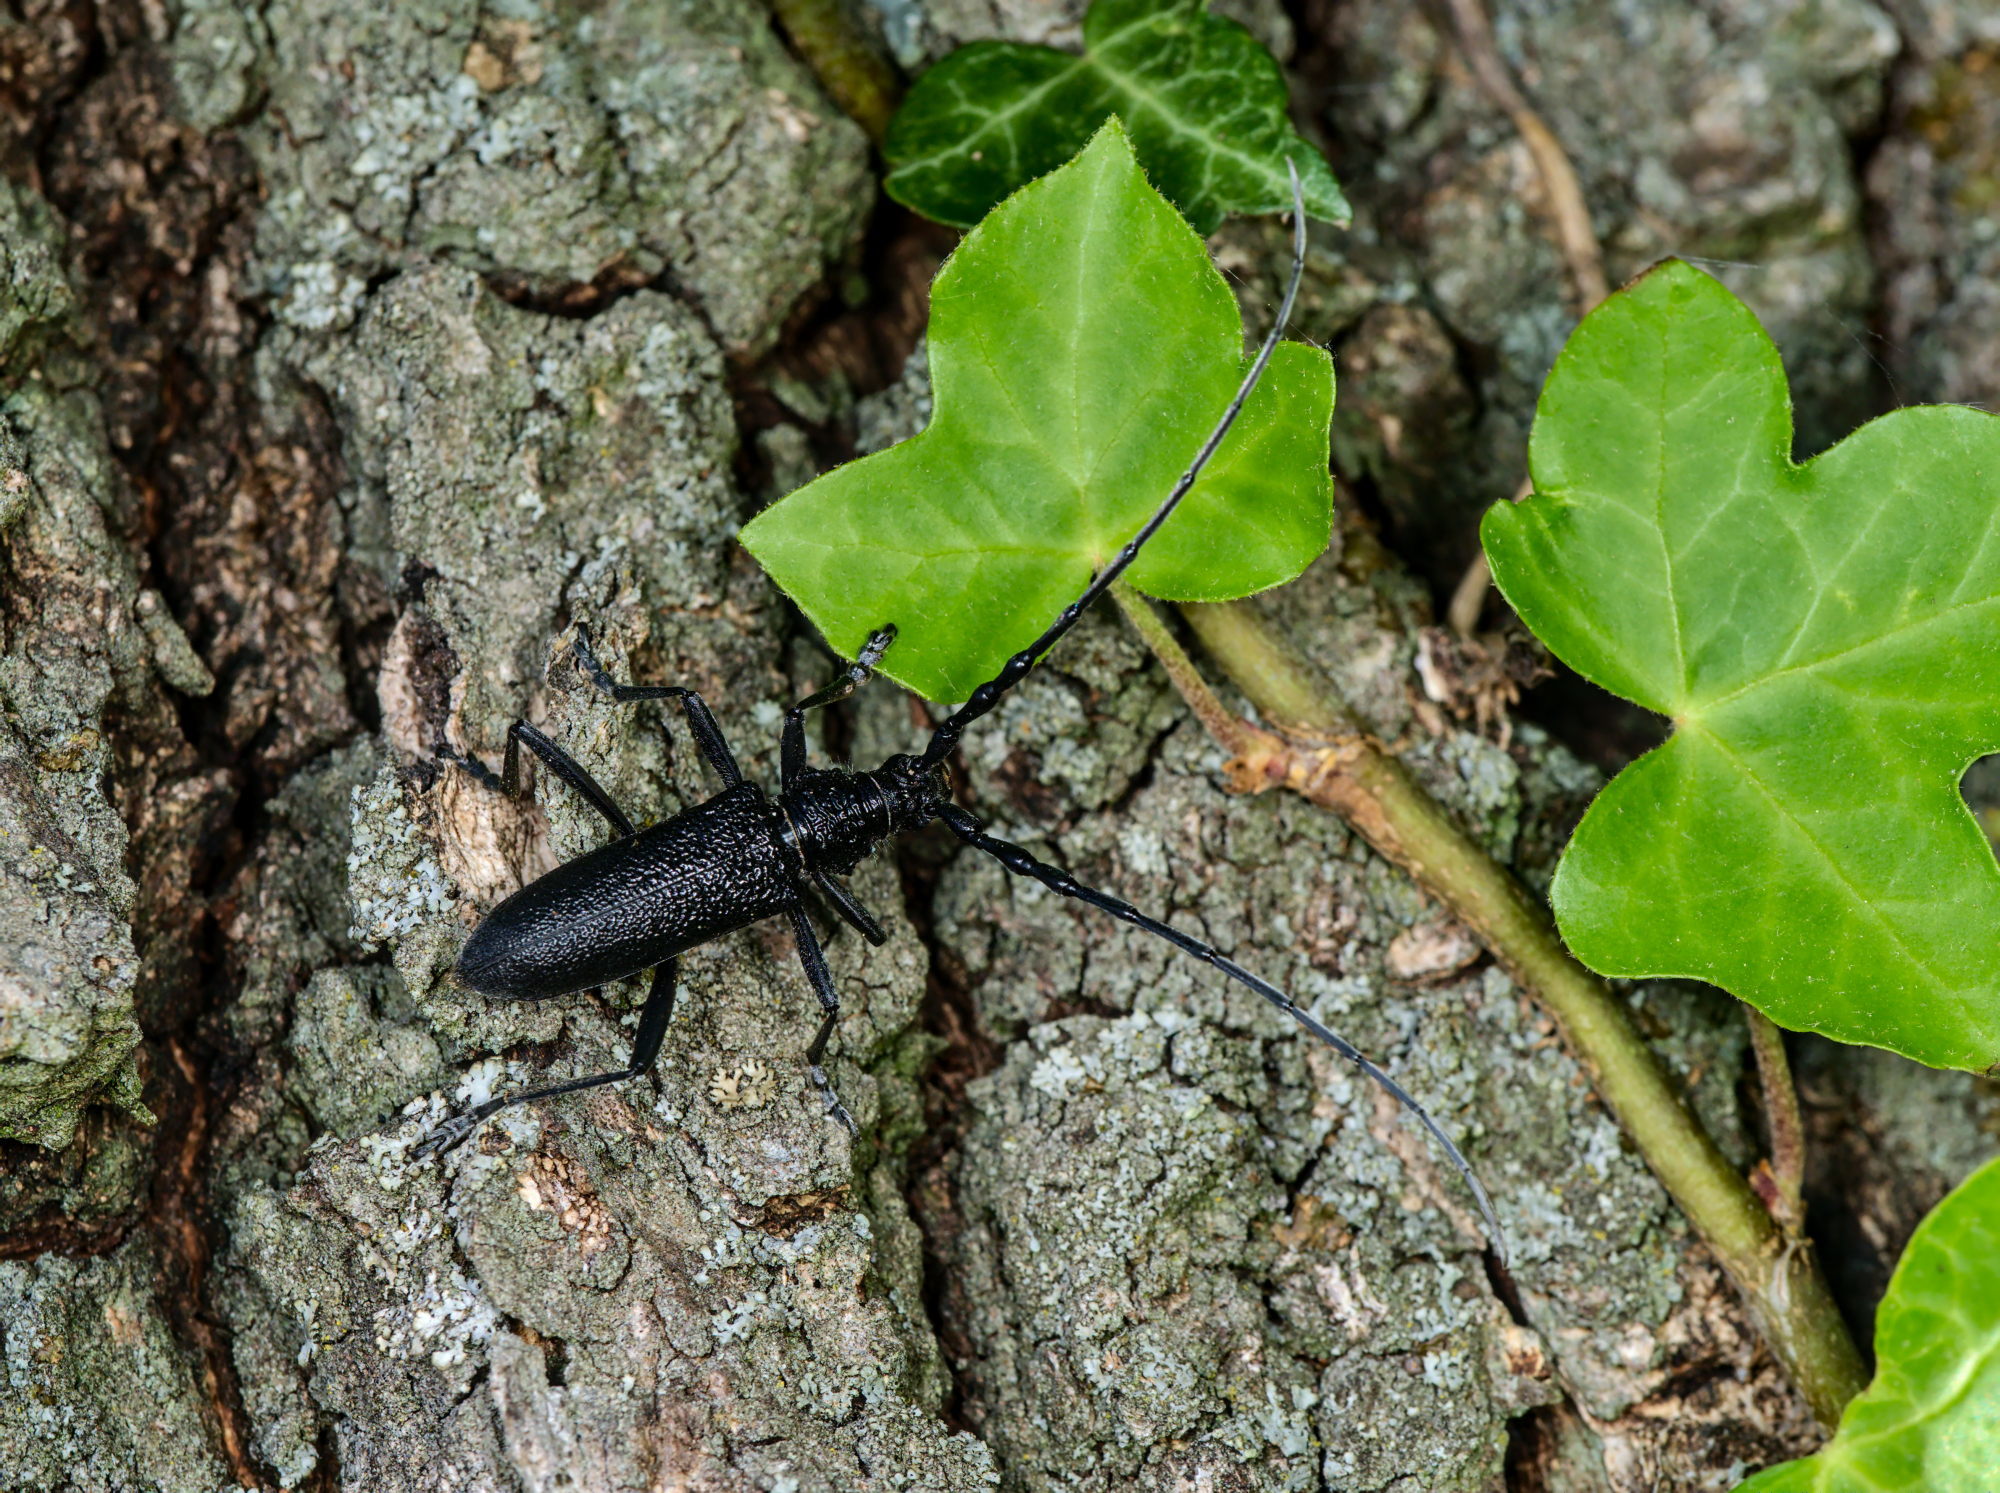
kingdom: Animalia
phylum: Arthropoda
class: Insecta
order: Coleoptera
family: Cerambycidae
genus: Cerambyx
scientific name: Cerambyx scopolii
